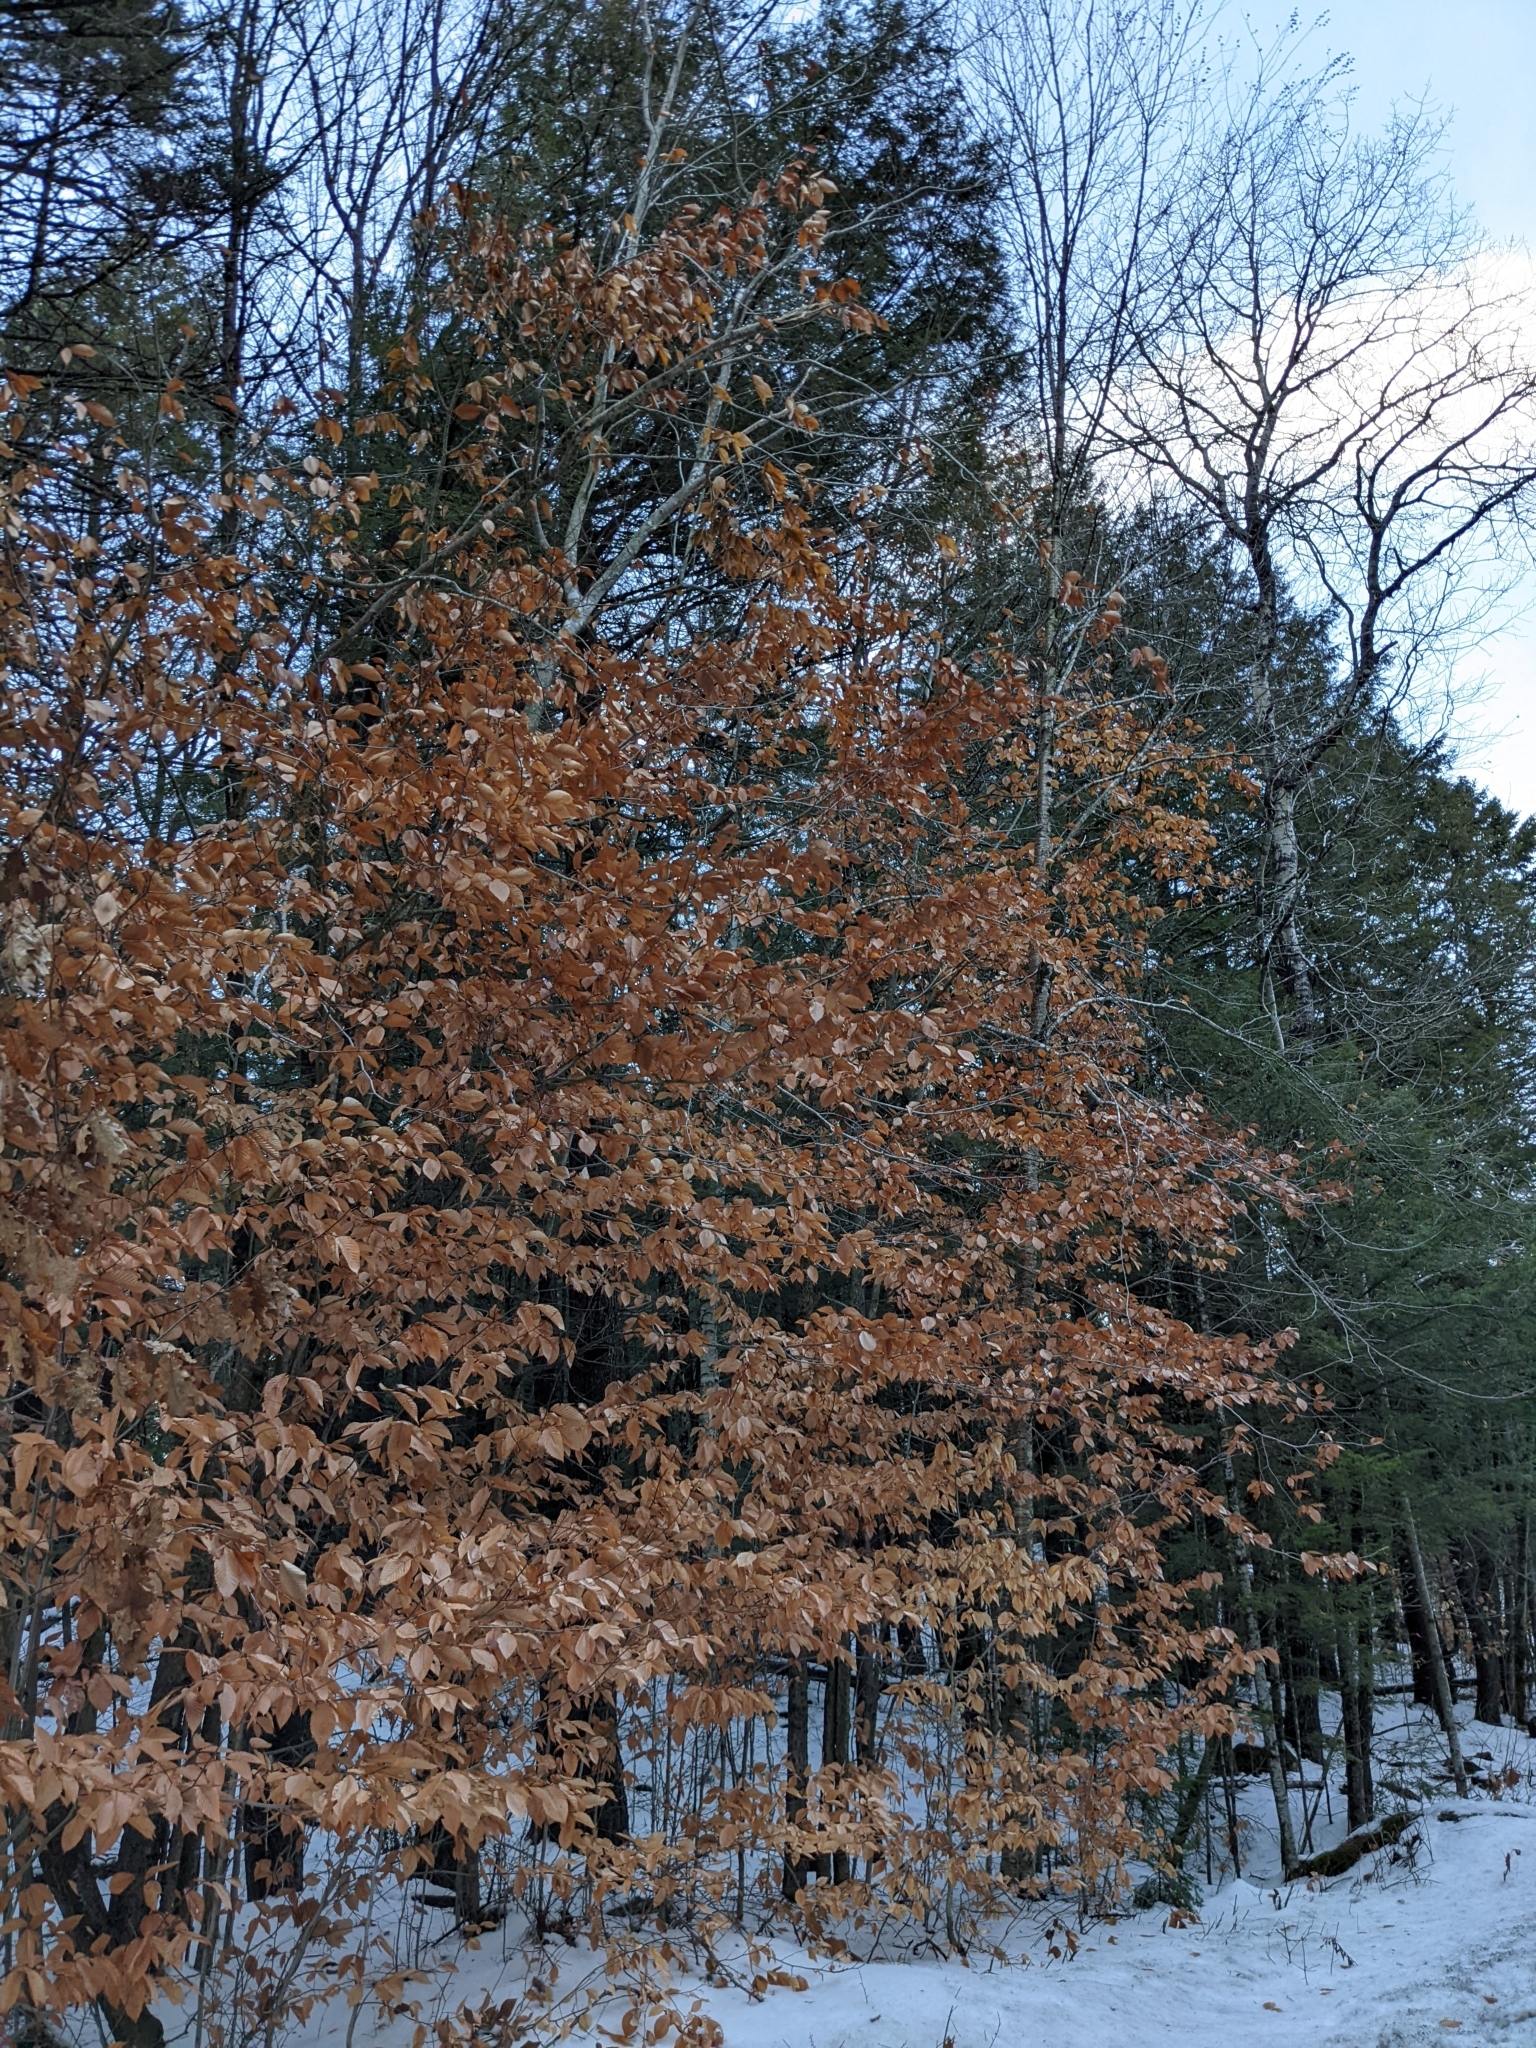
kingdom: Plantae
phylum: Tracheophyta
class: Magnoliopsida
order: Fagales
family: Fagaceae
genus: Fagus
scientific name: Fagus grandifolia
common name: American beech
